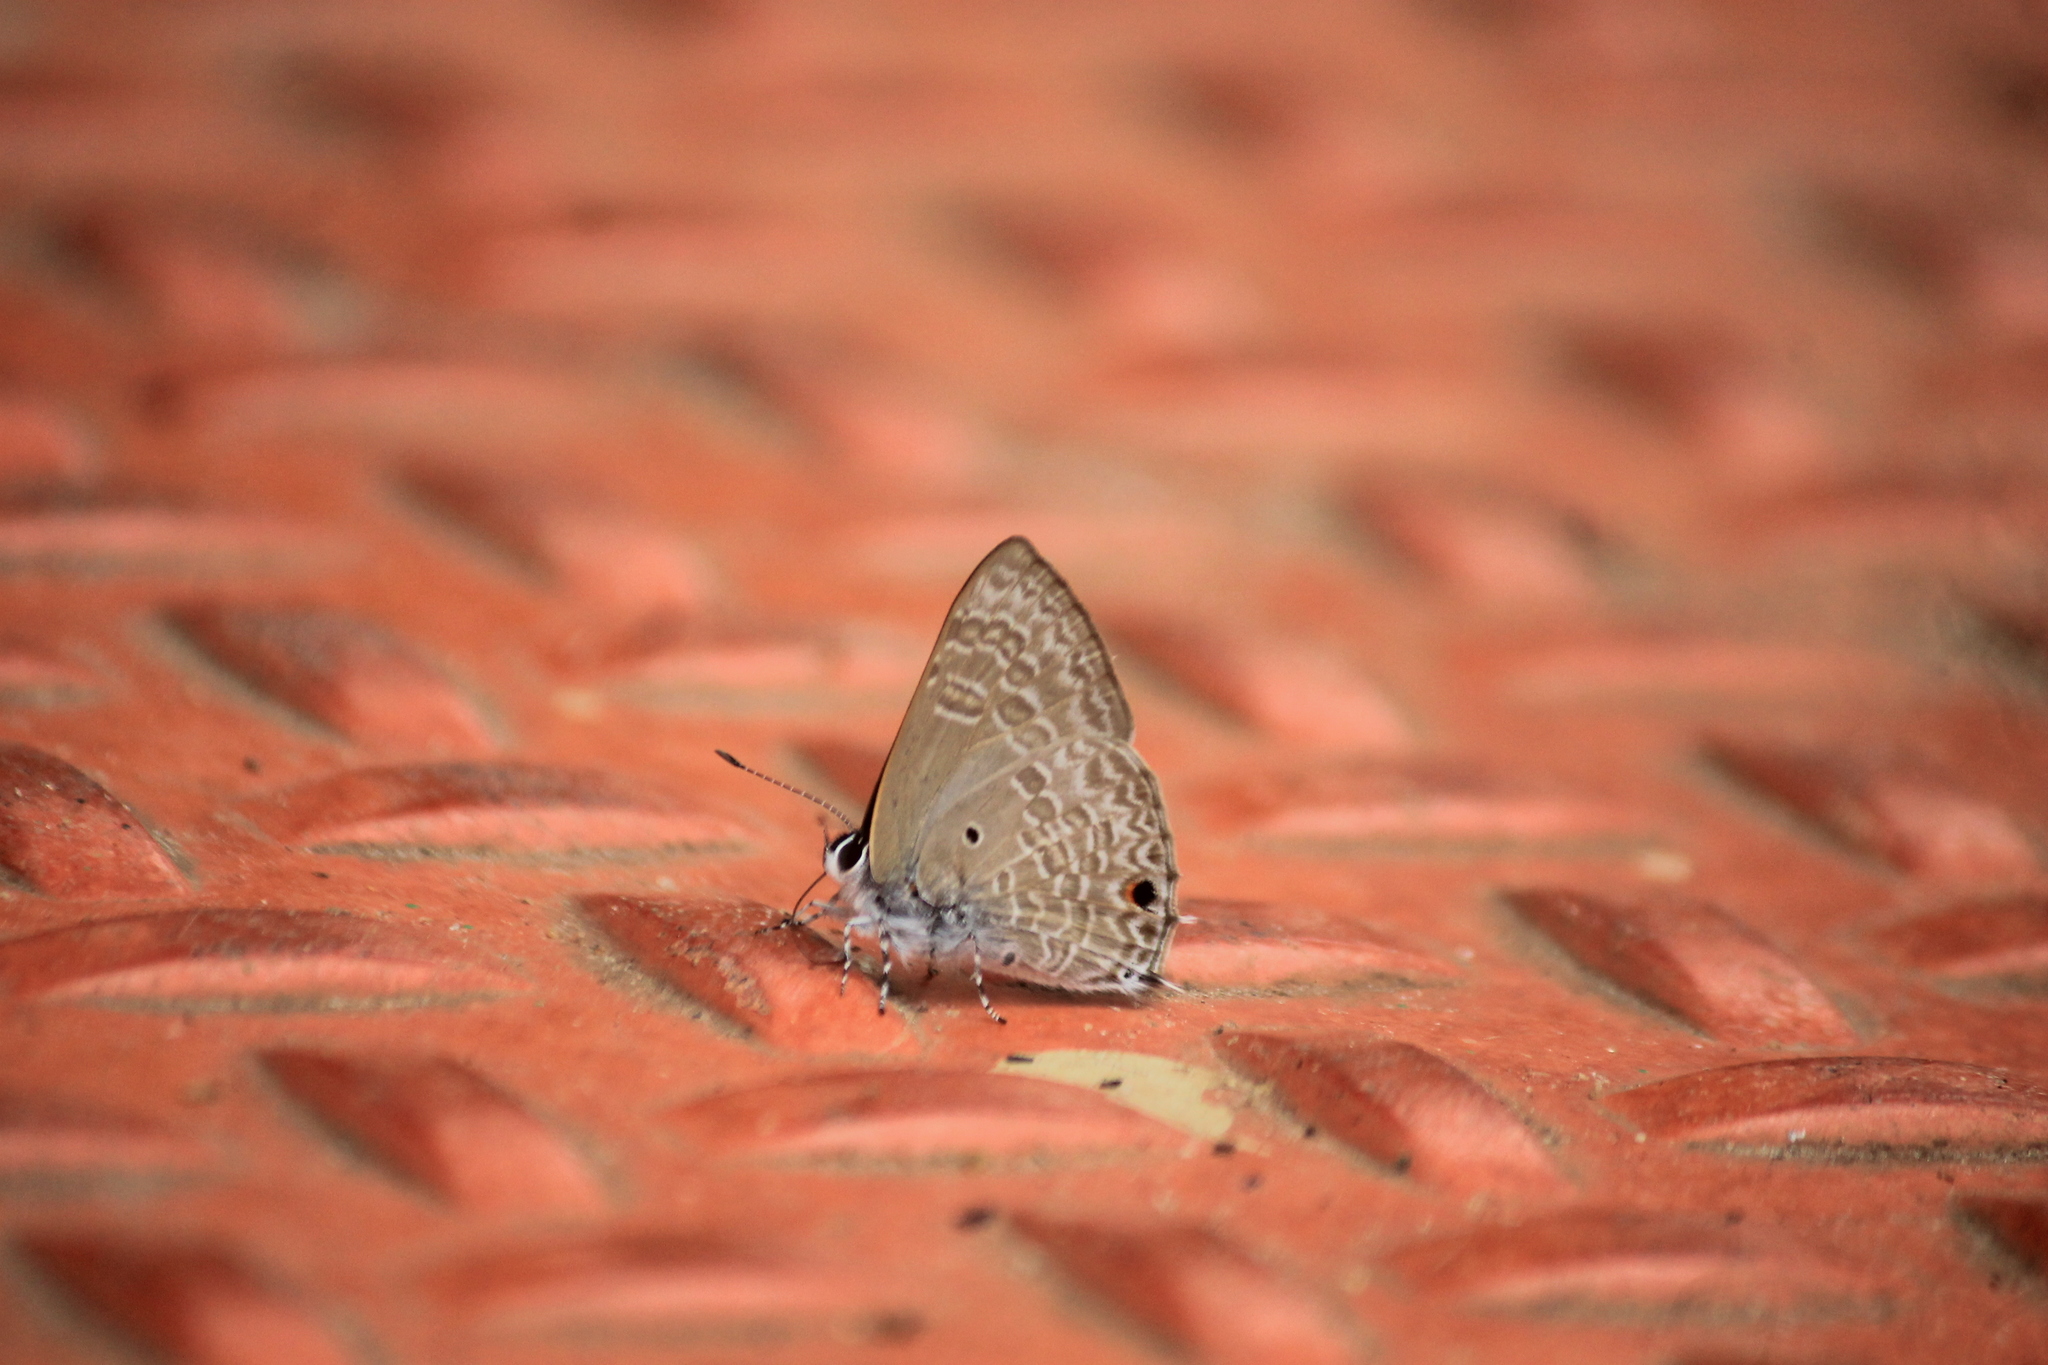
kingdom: Animalia
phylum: Arthropoda
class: Insecta
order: Lepidoptera
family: Lycaenidae
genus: Anthene
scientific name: Anthene lycaenina
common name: Pointed ciliate blue
